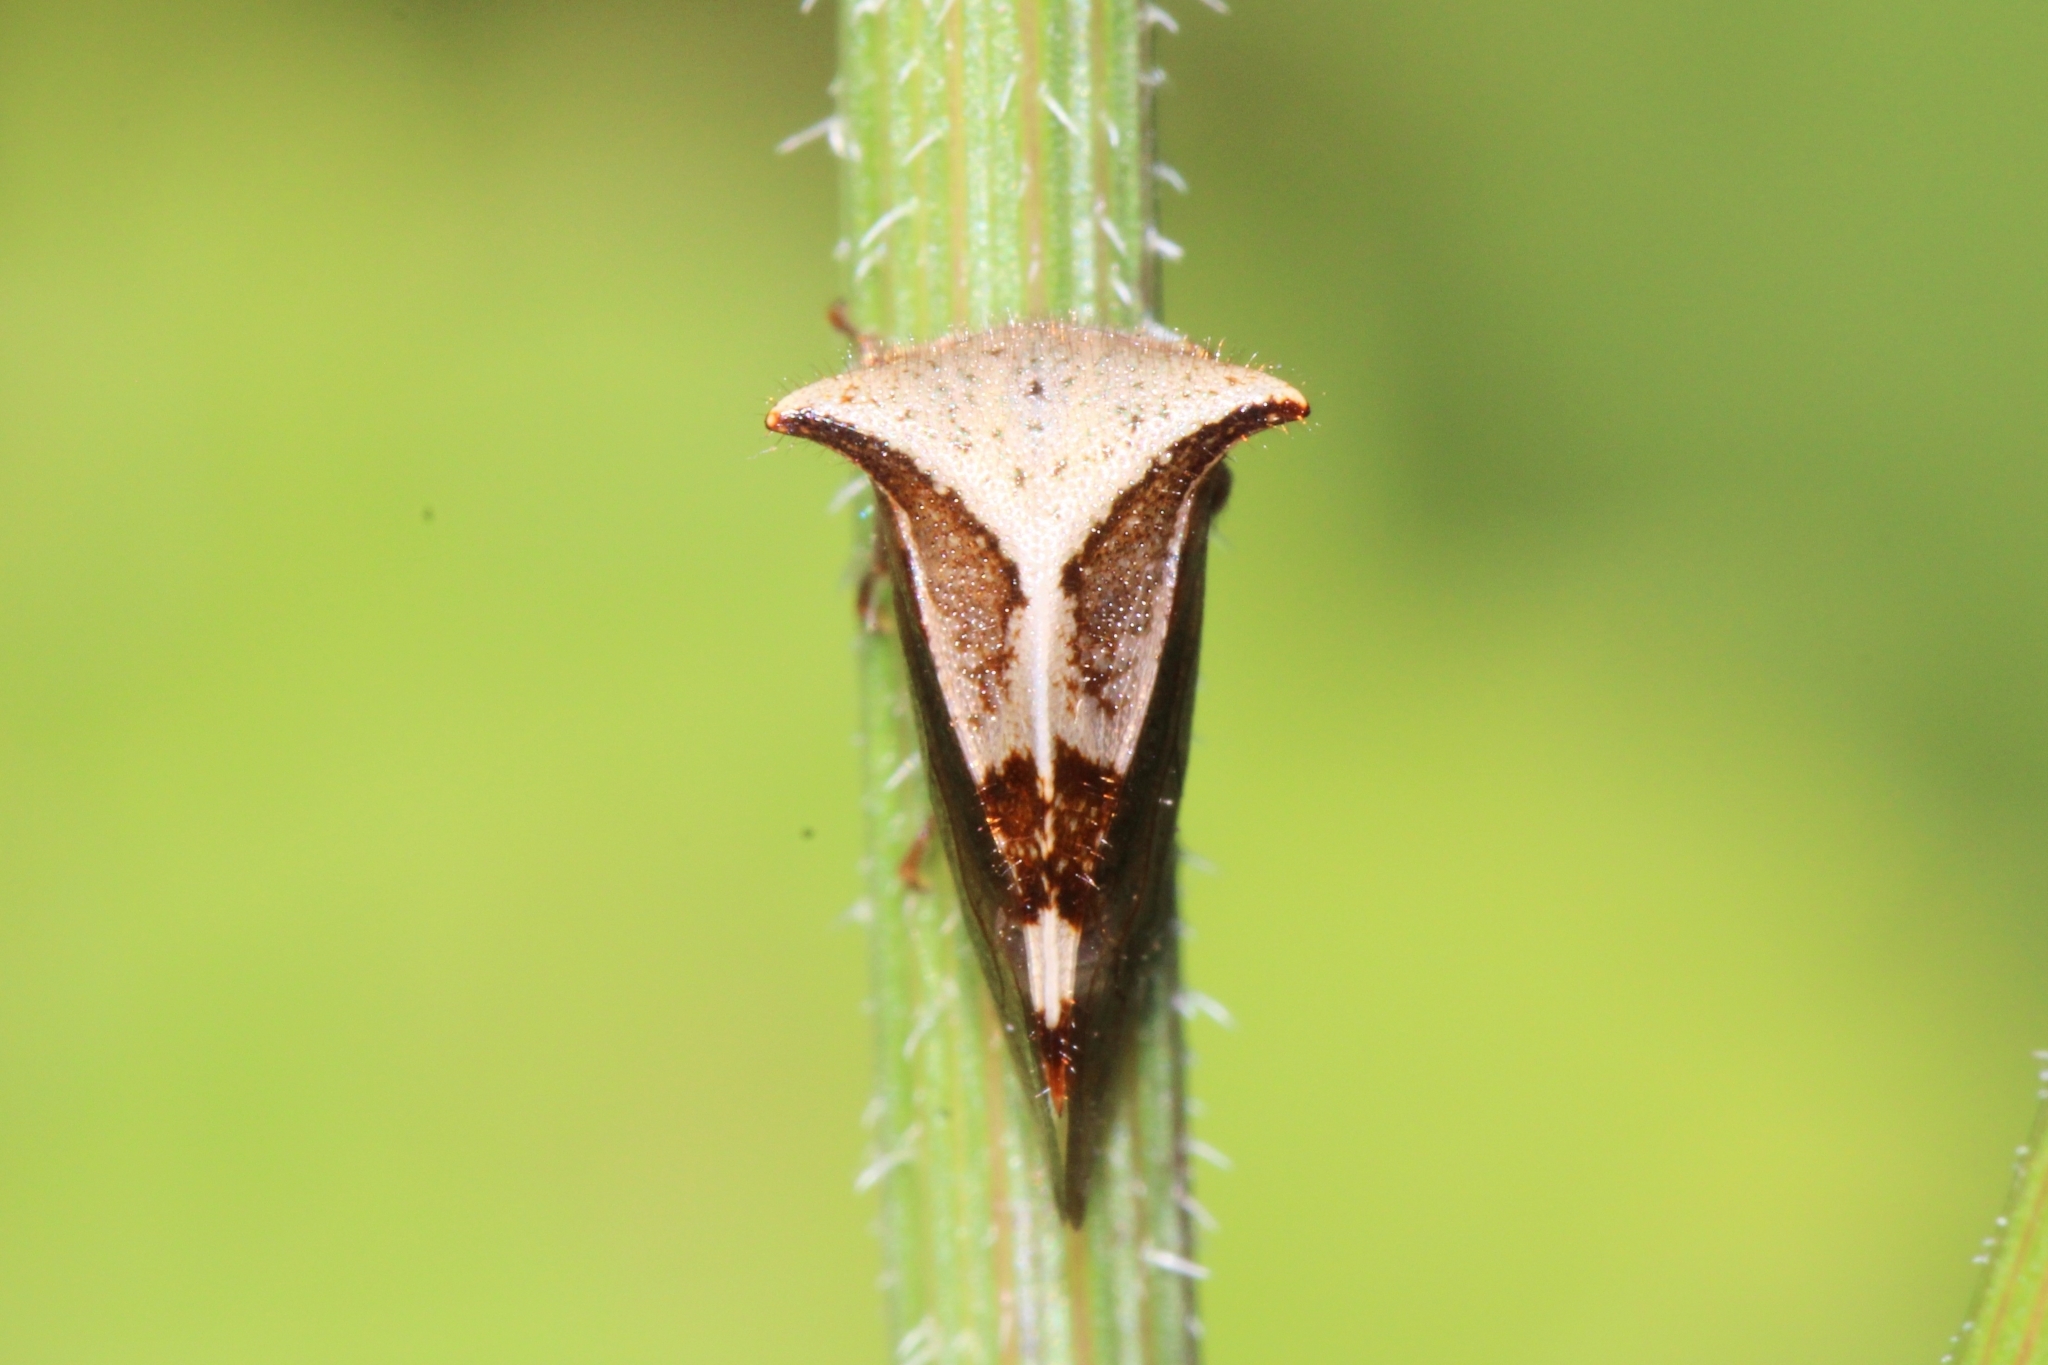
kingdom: Animalia
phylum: Arthropoda
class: Insecta
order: Hemiptera
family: Membracidae
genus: Stictocephala
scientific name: Stictocephala diceros
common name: Two-horned treehopper
